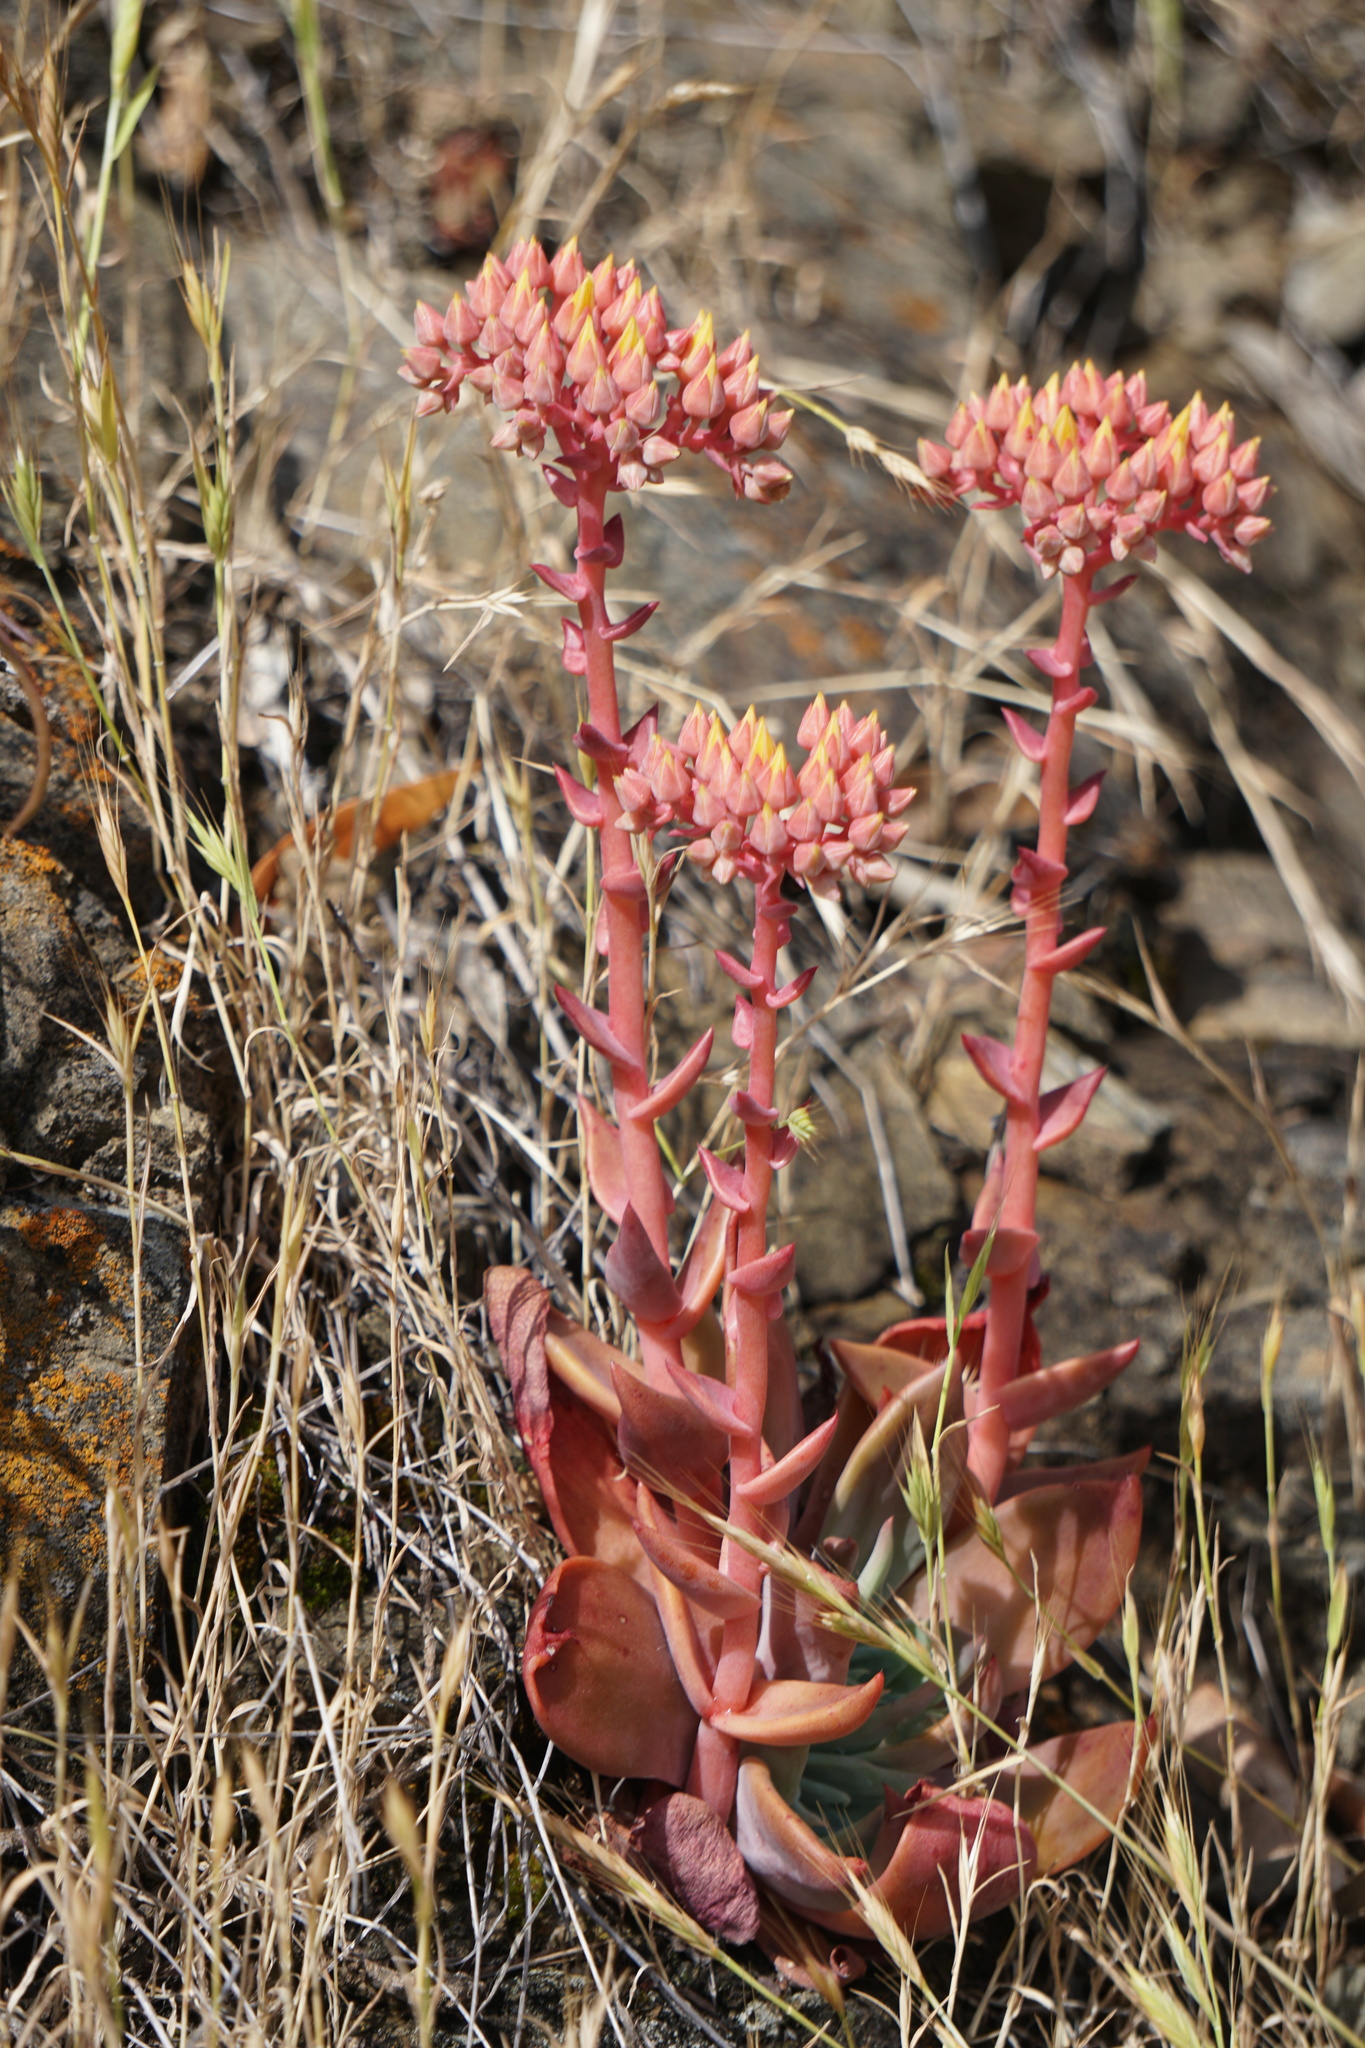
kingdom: Plantae
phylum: Tracheophyta
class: Magnoliopsida
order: Saxifragales
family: Crassulaceae
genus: Dudleya
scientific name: Dudleya cymosa
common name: Canyon dudleya
